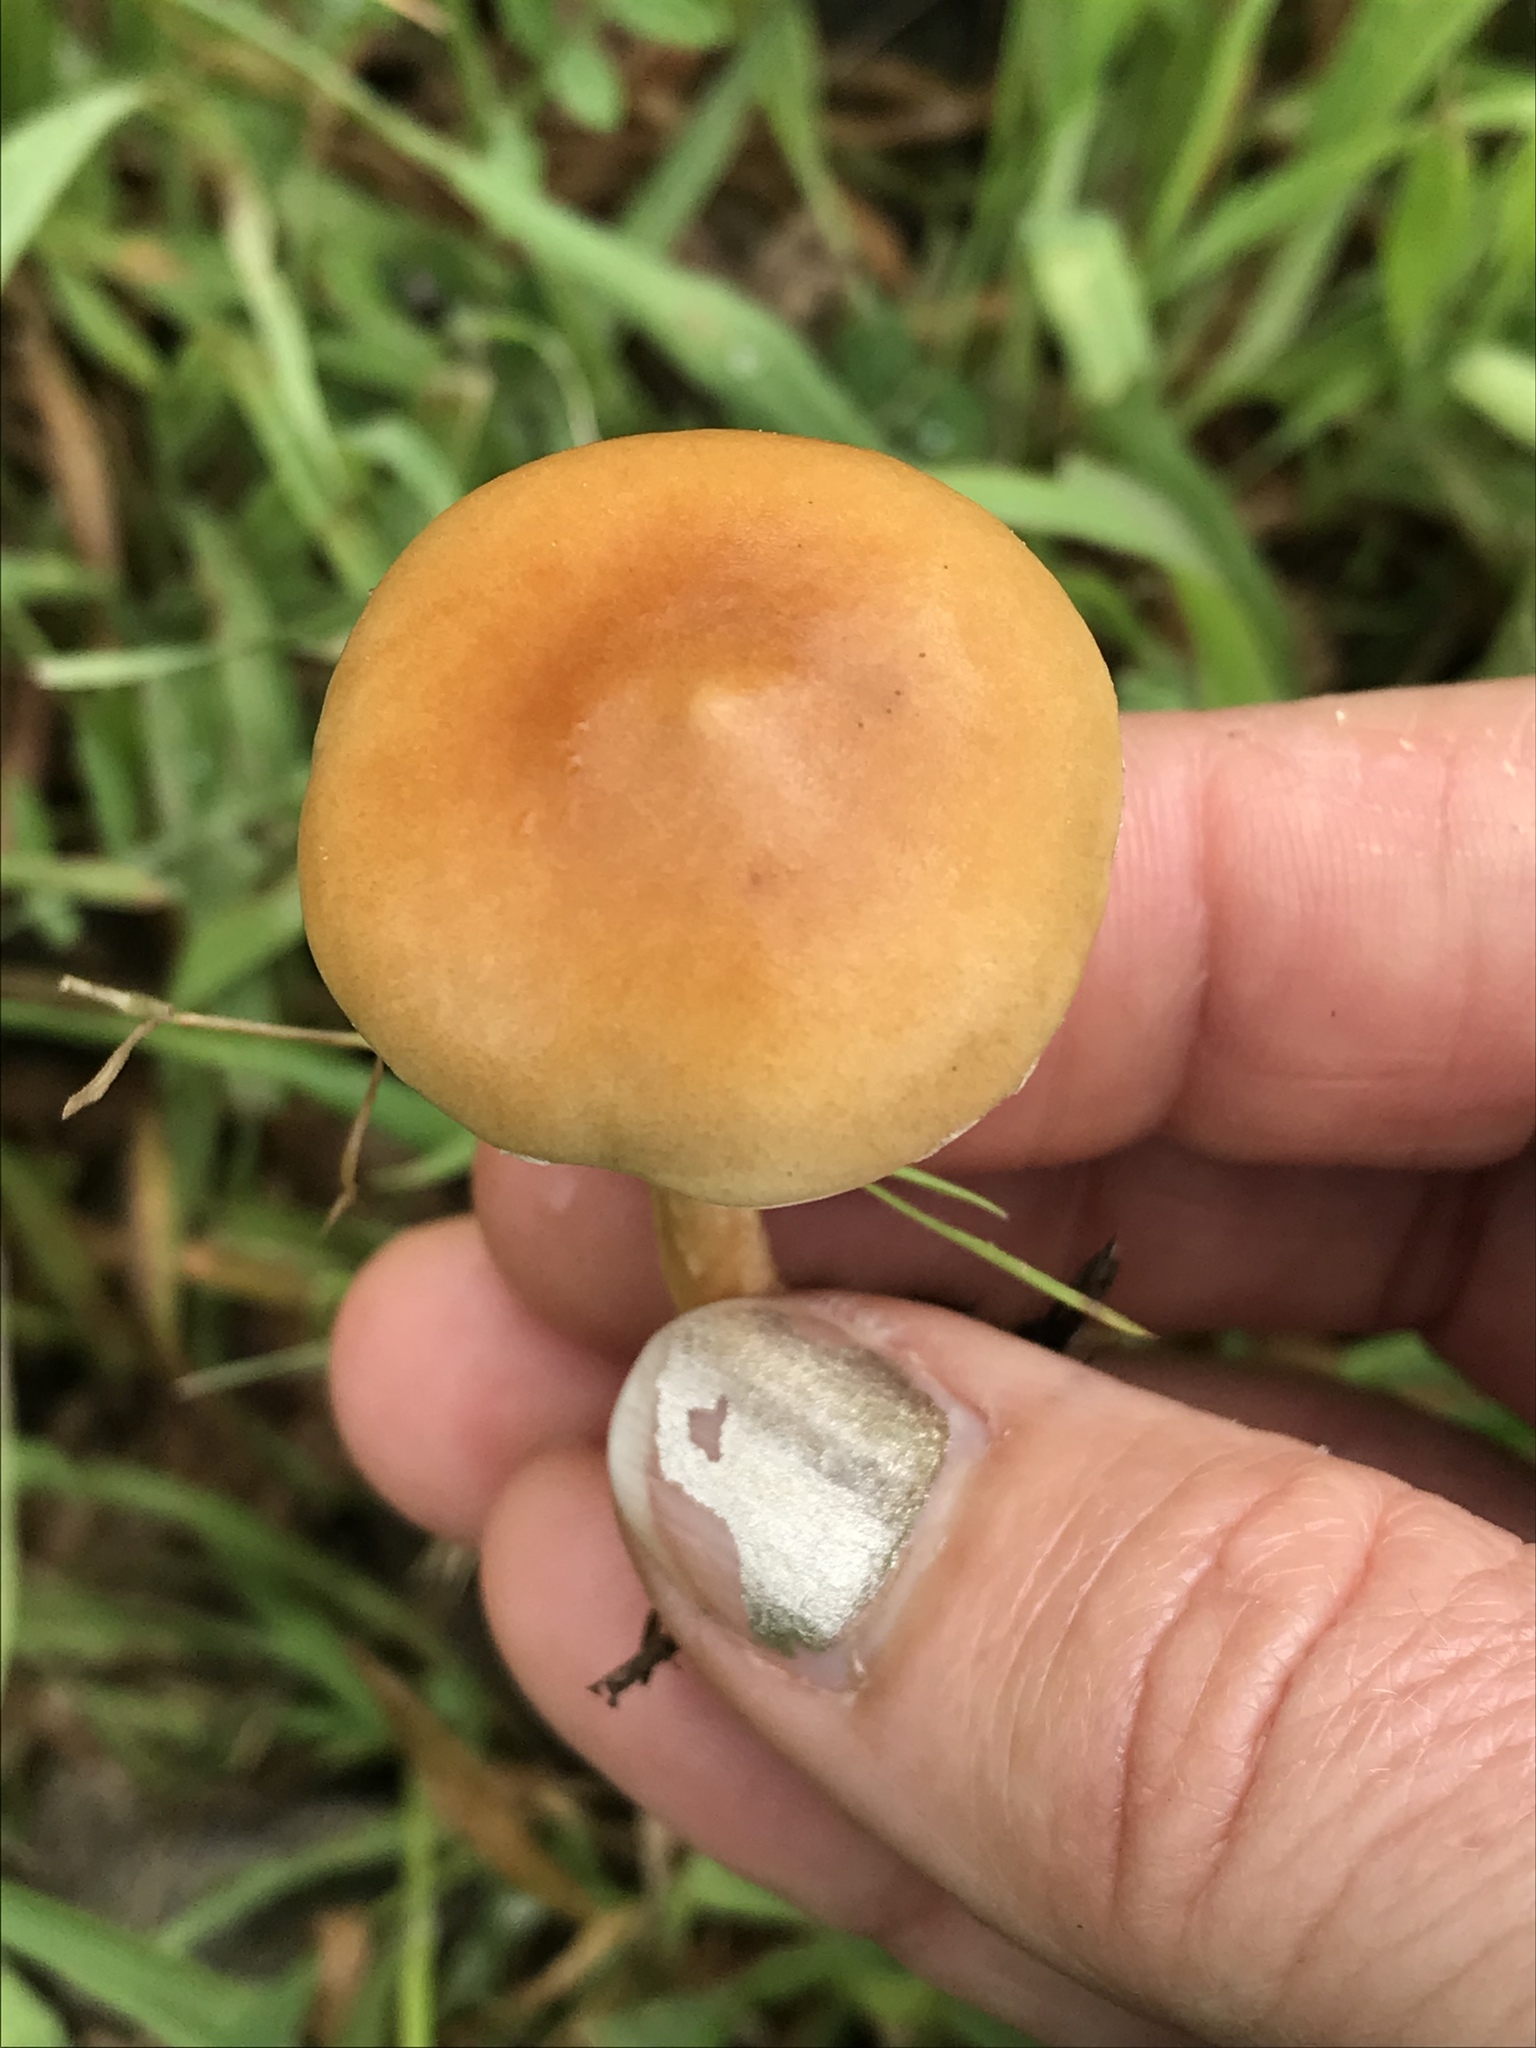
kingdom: Fungi
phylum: Basidiomycota
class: Agaricomycetes
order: Agaricales
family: Strophariaceae
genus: Agrocybe
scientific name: Agrocybe pediades
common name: Common fieldcap
